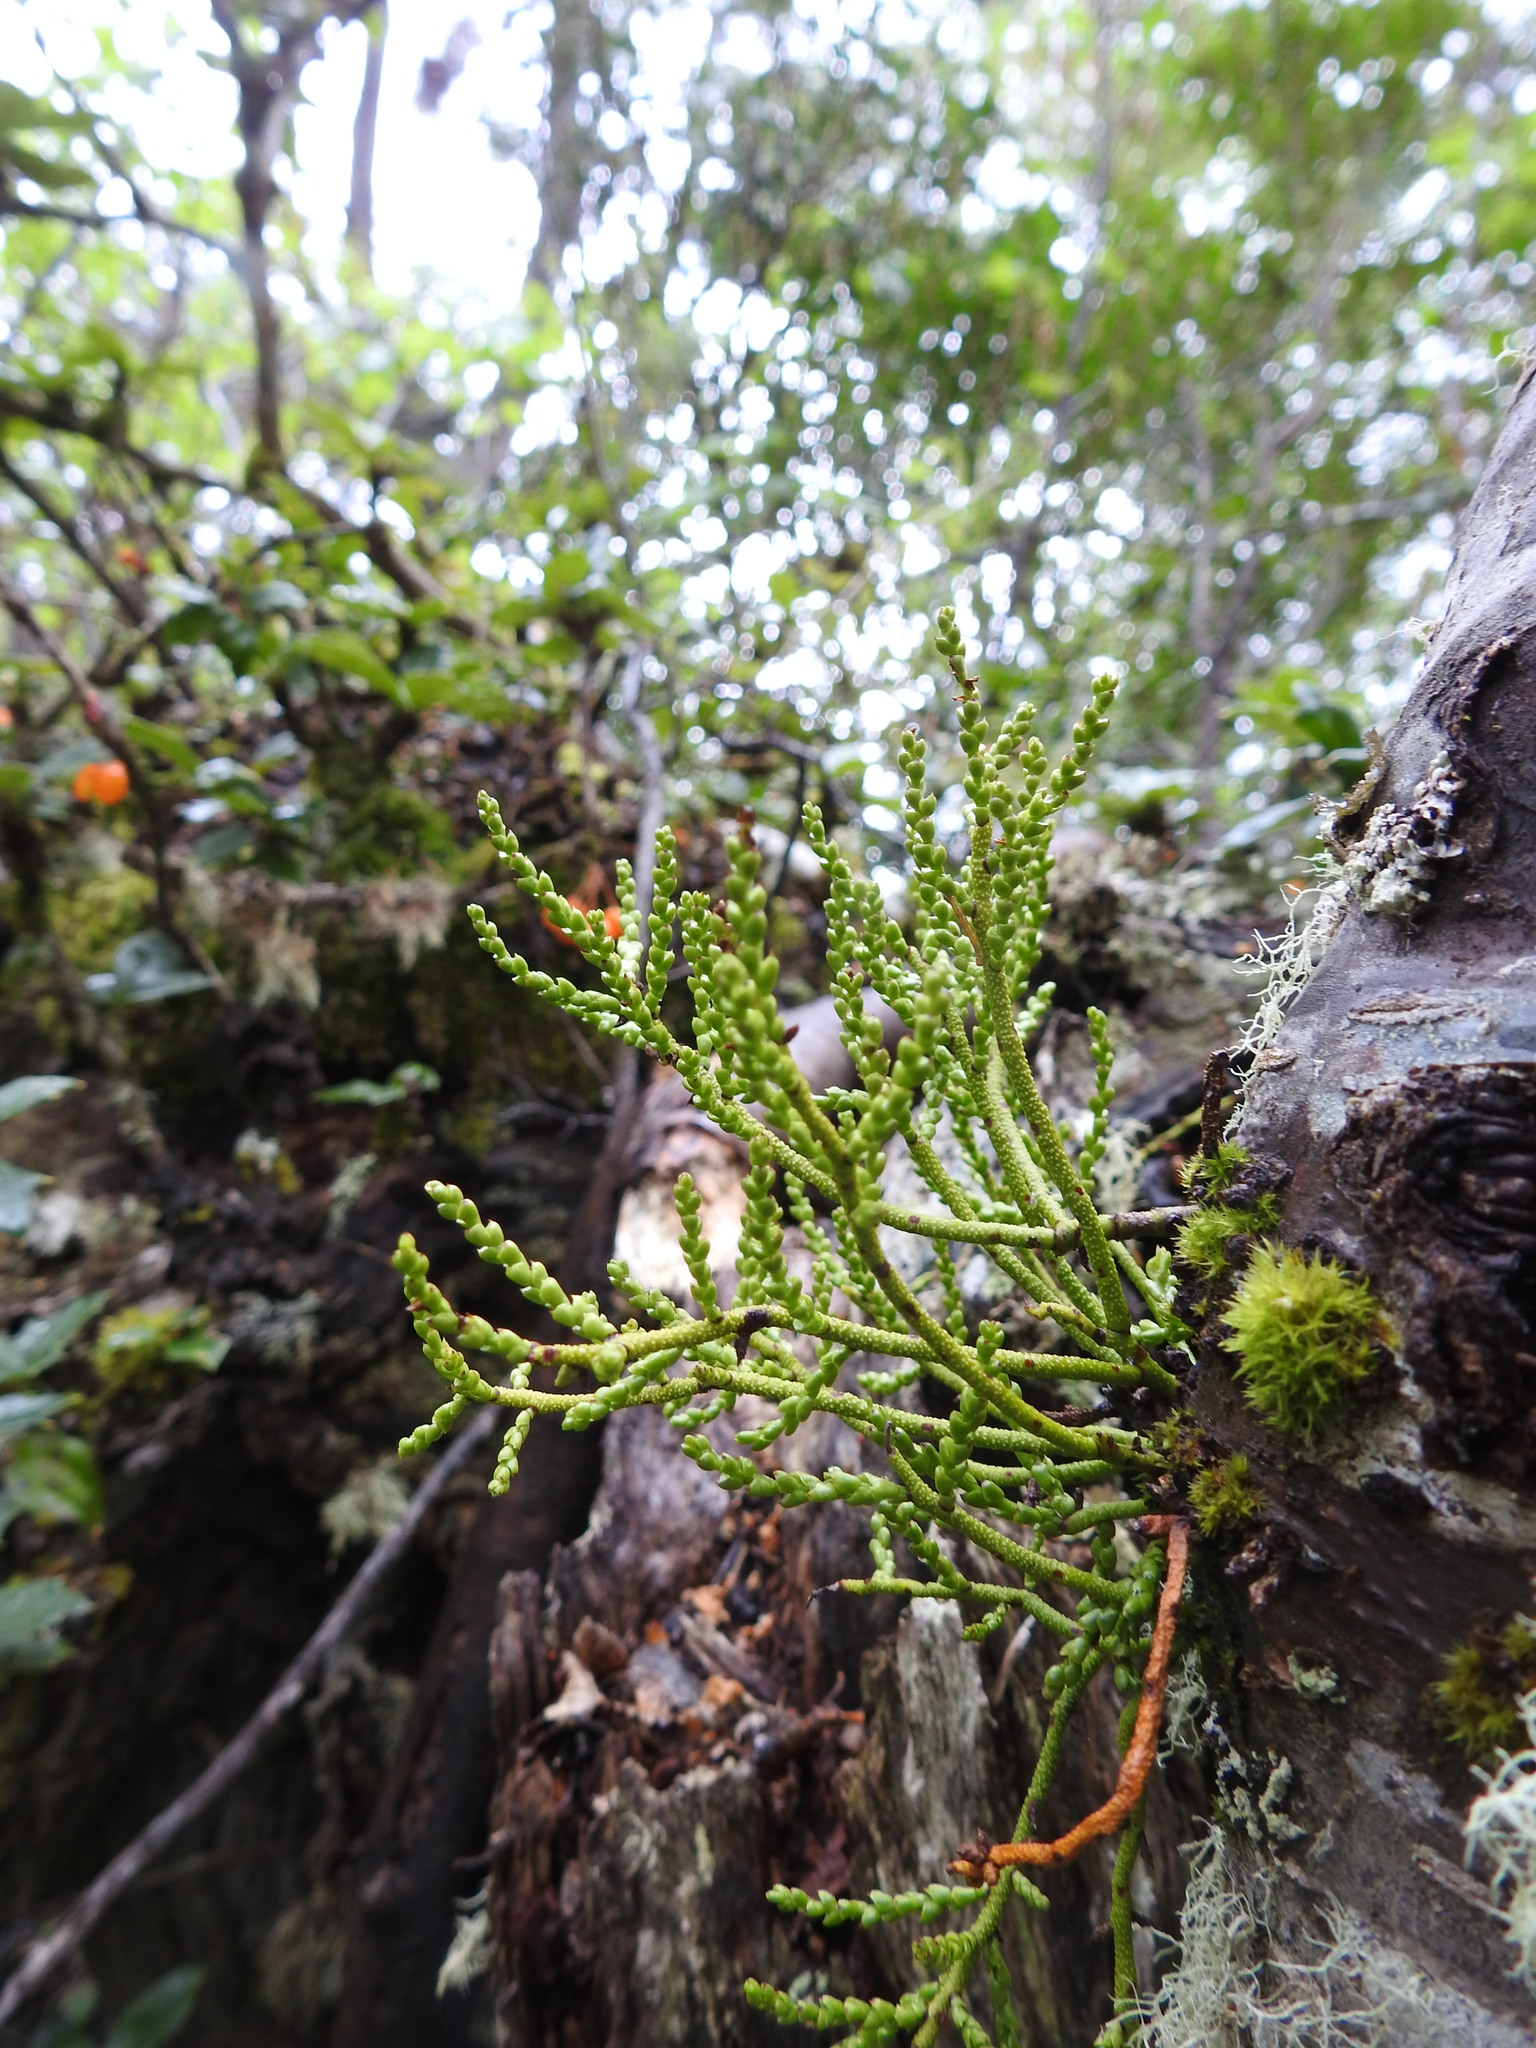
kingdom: Plantae
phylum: Tracheophyta
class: Magnoliopsida
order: Santalales
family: Misodendraceae
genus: Misodendrum
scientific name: Misodendrum punctulatum
